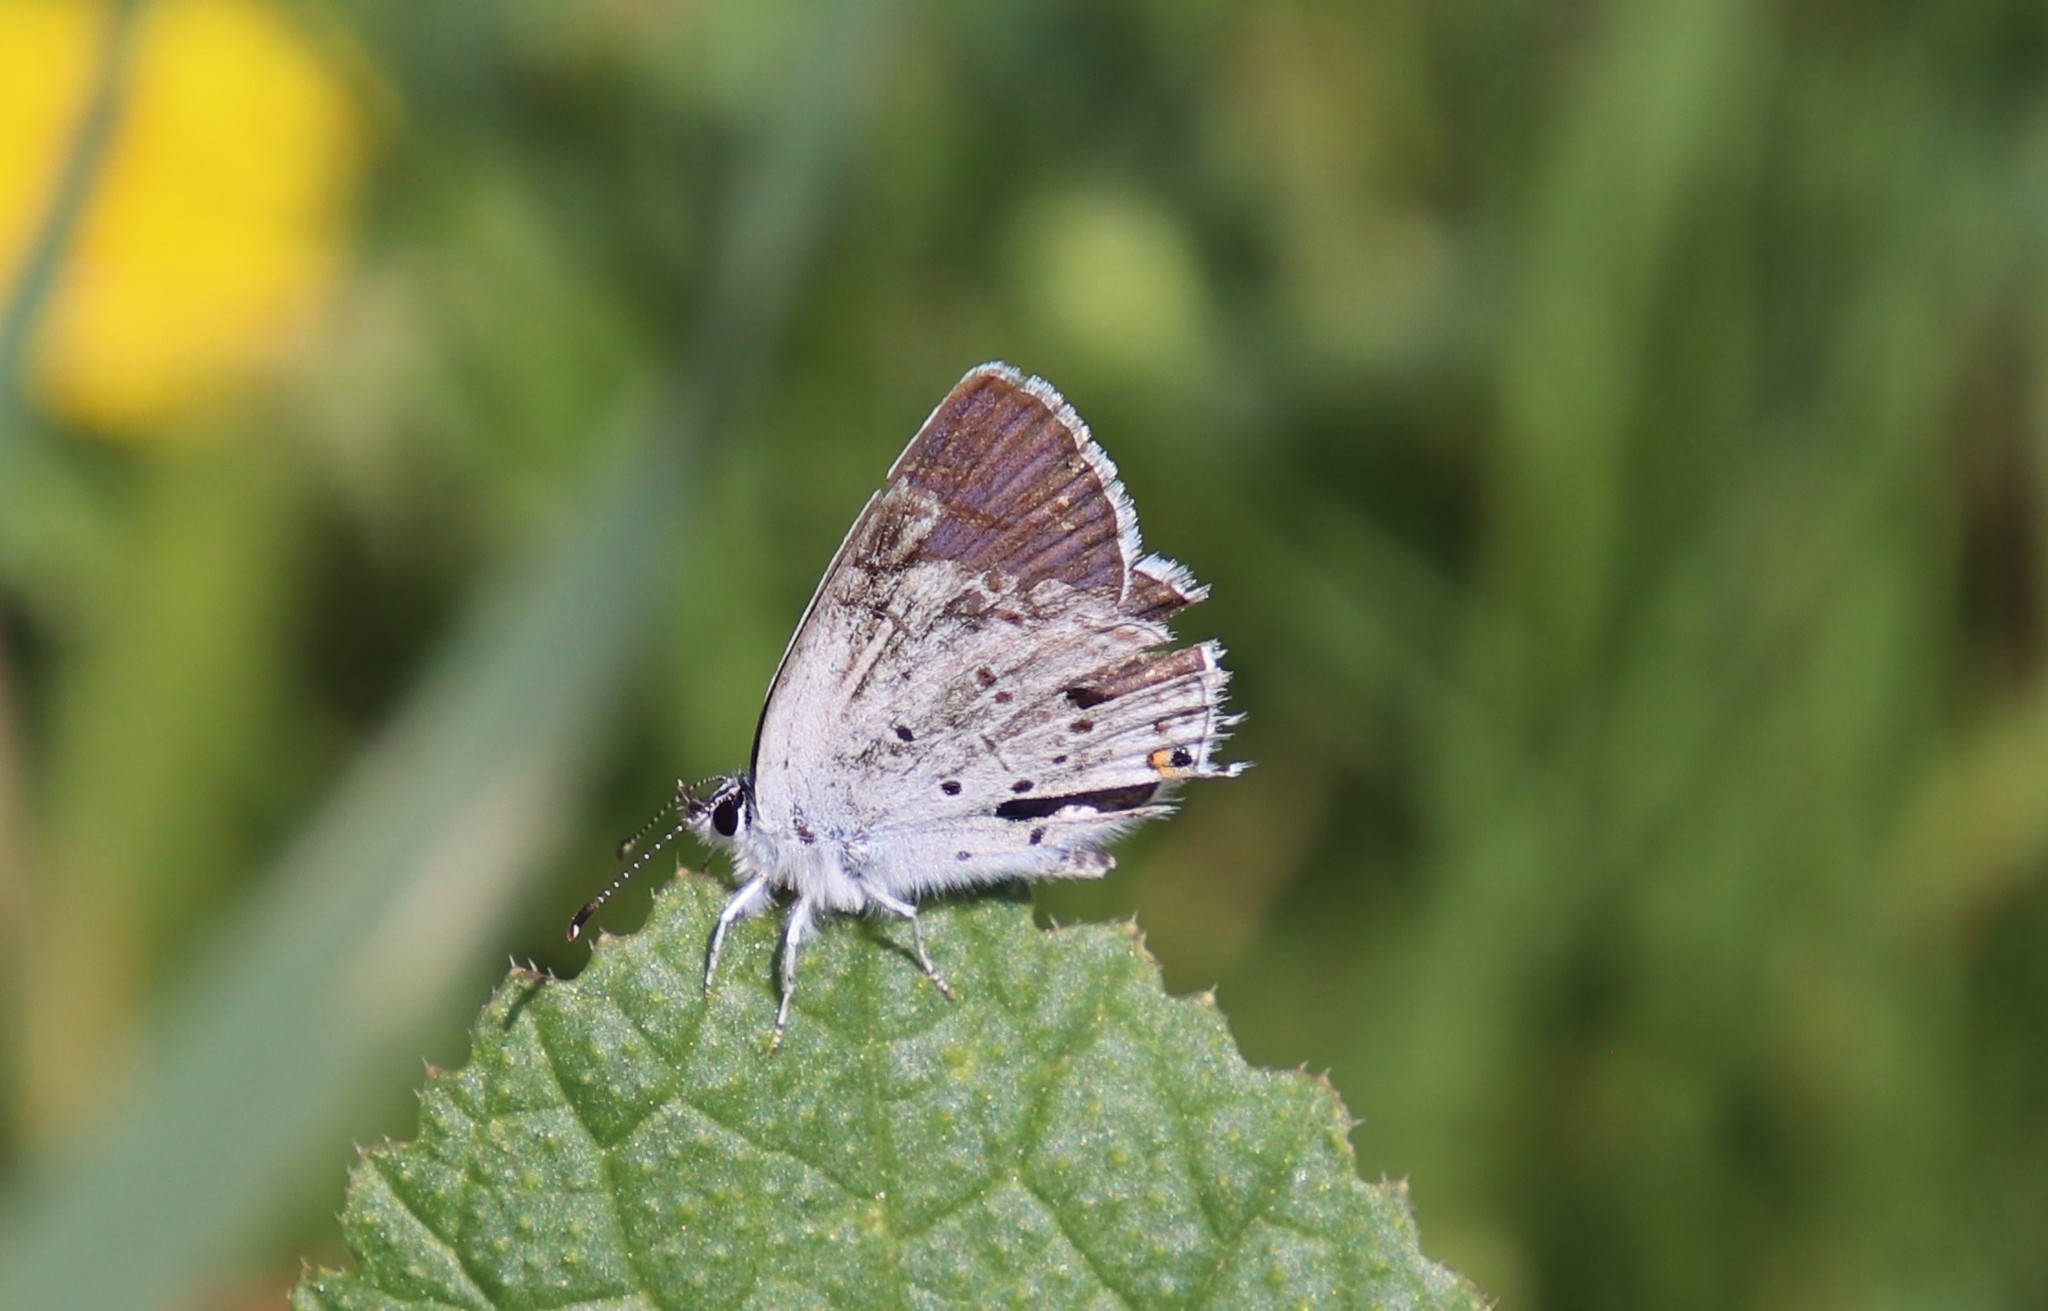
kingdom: Animalia
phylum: Arthropoda
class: Insecta
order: Lepidoptera
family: Lycaenidae
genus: Elkalyce
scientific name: Elkalyce amyntula
